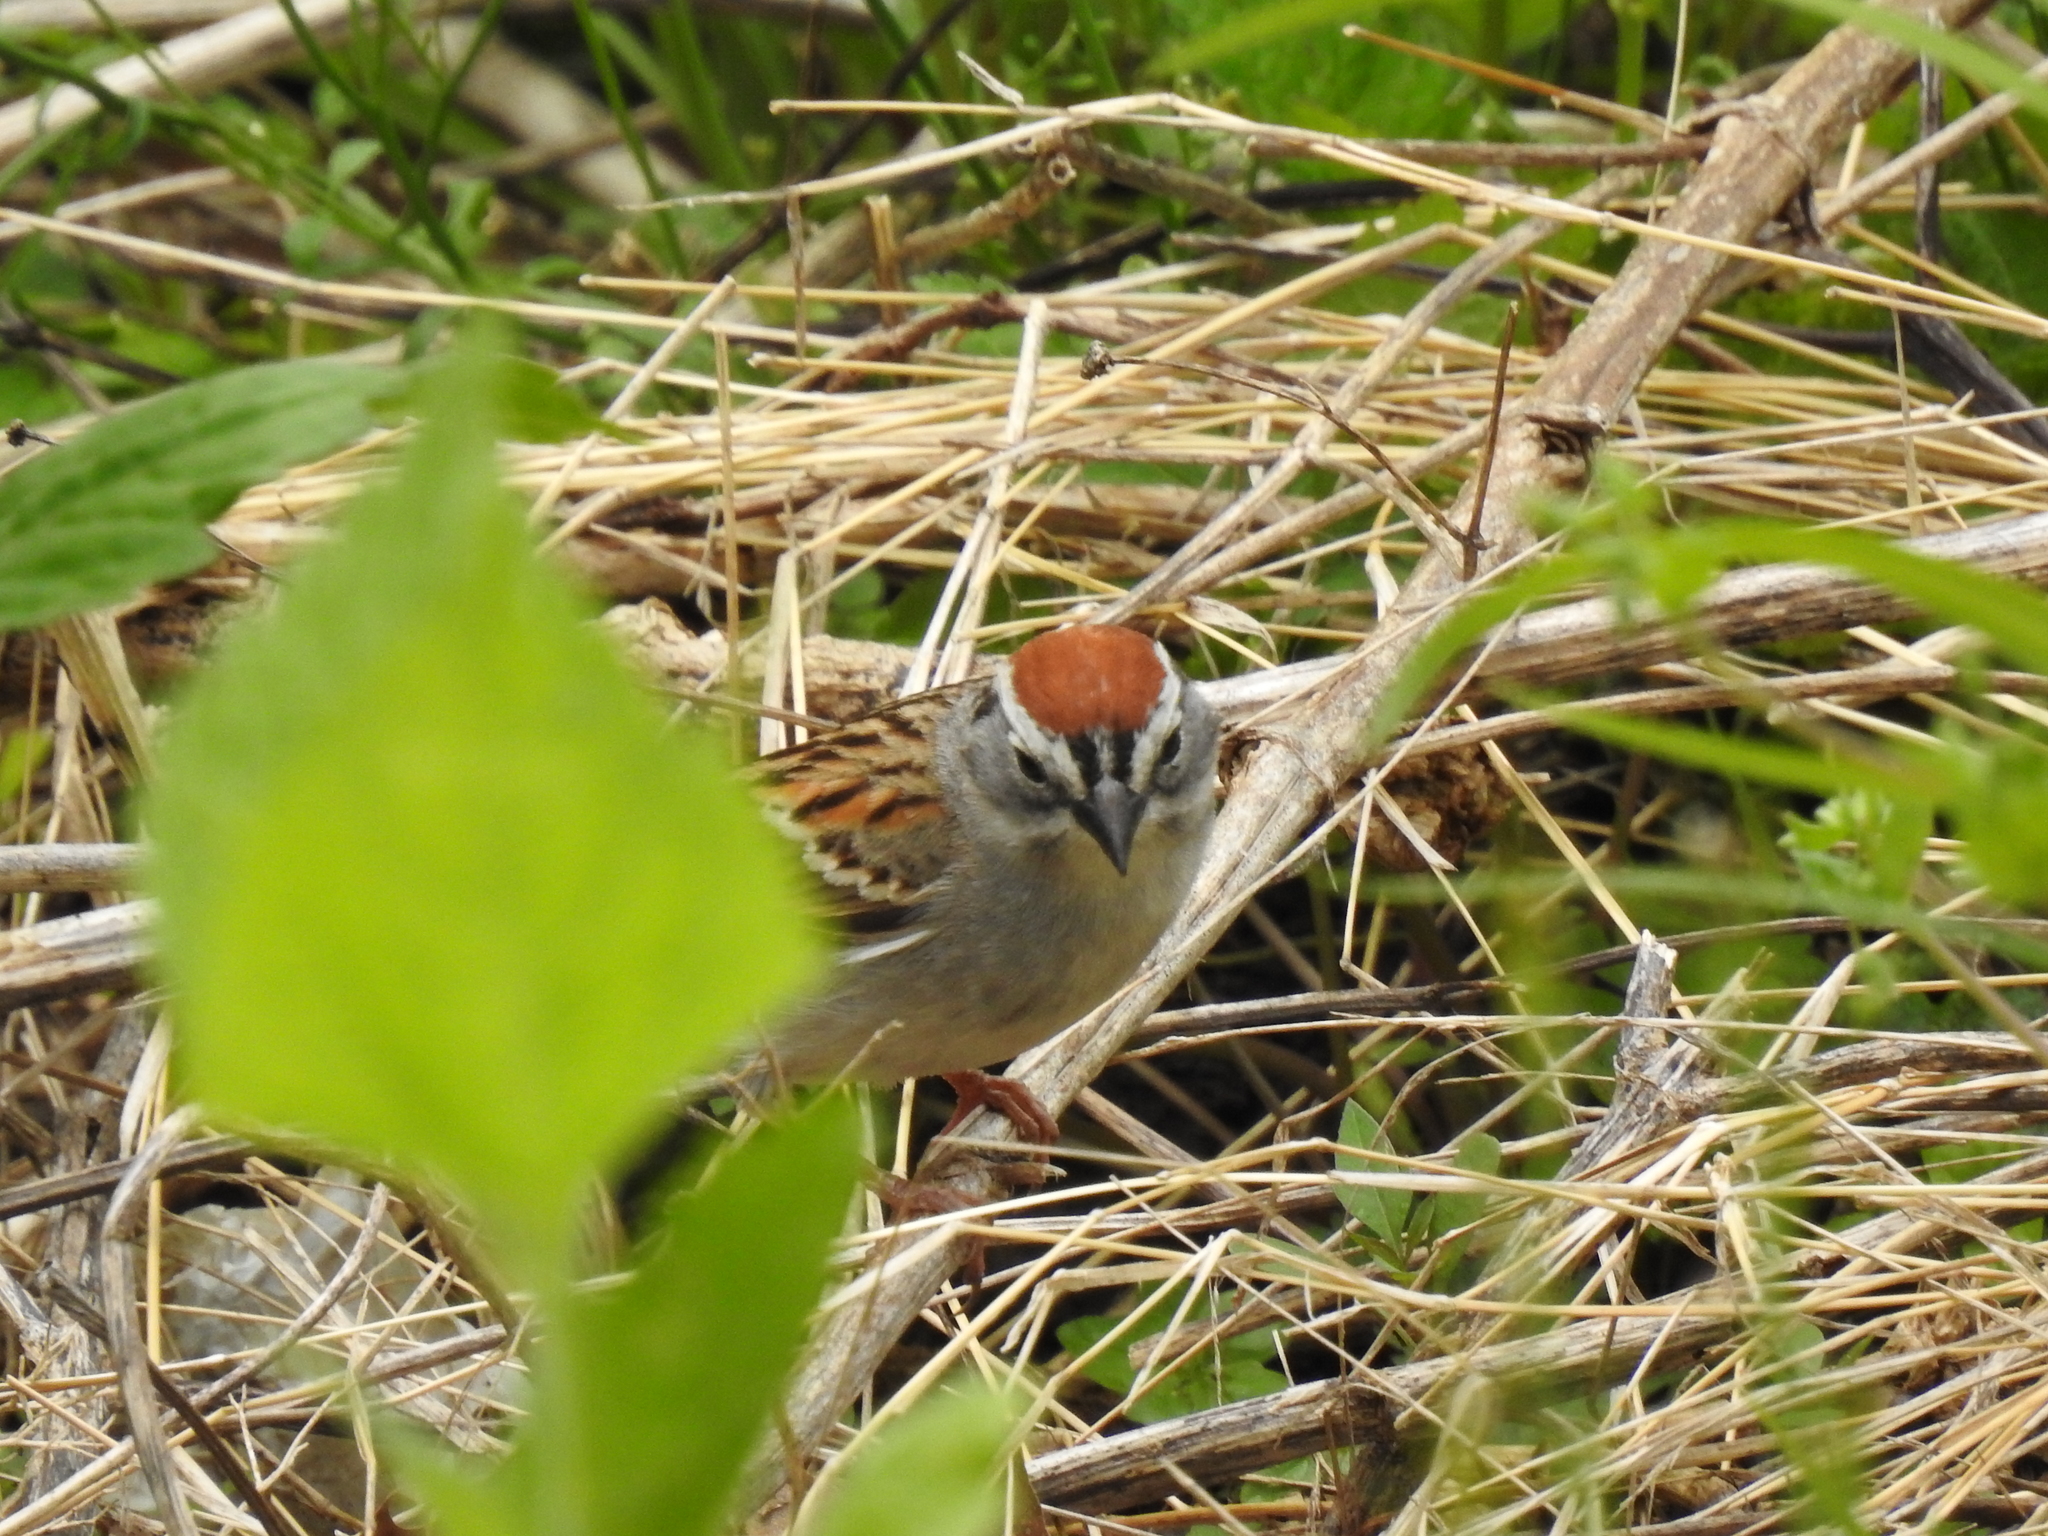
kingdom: Animalia
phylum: Chordata
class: Aves
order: Passeriformes
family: Passerellidae
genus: Spizella
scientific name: Spizella passerina
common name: Chipping sparrow
